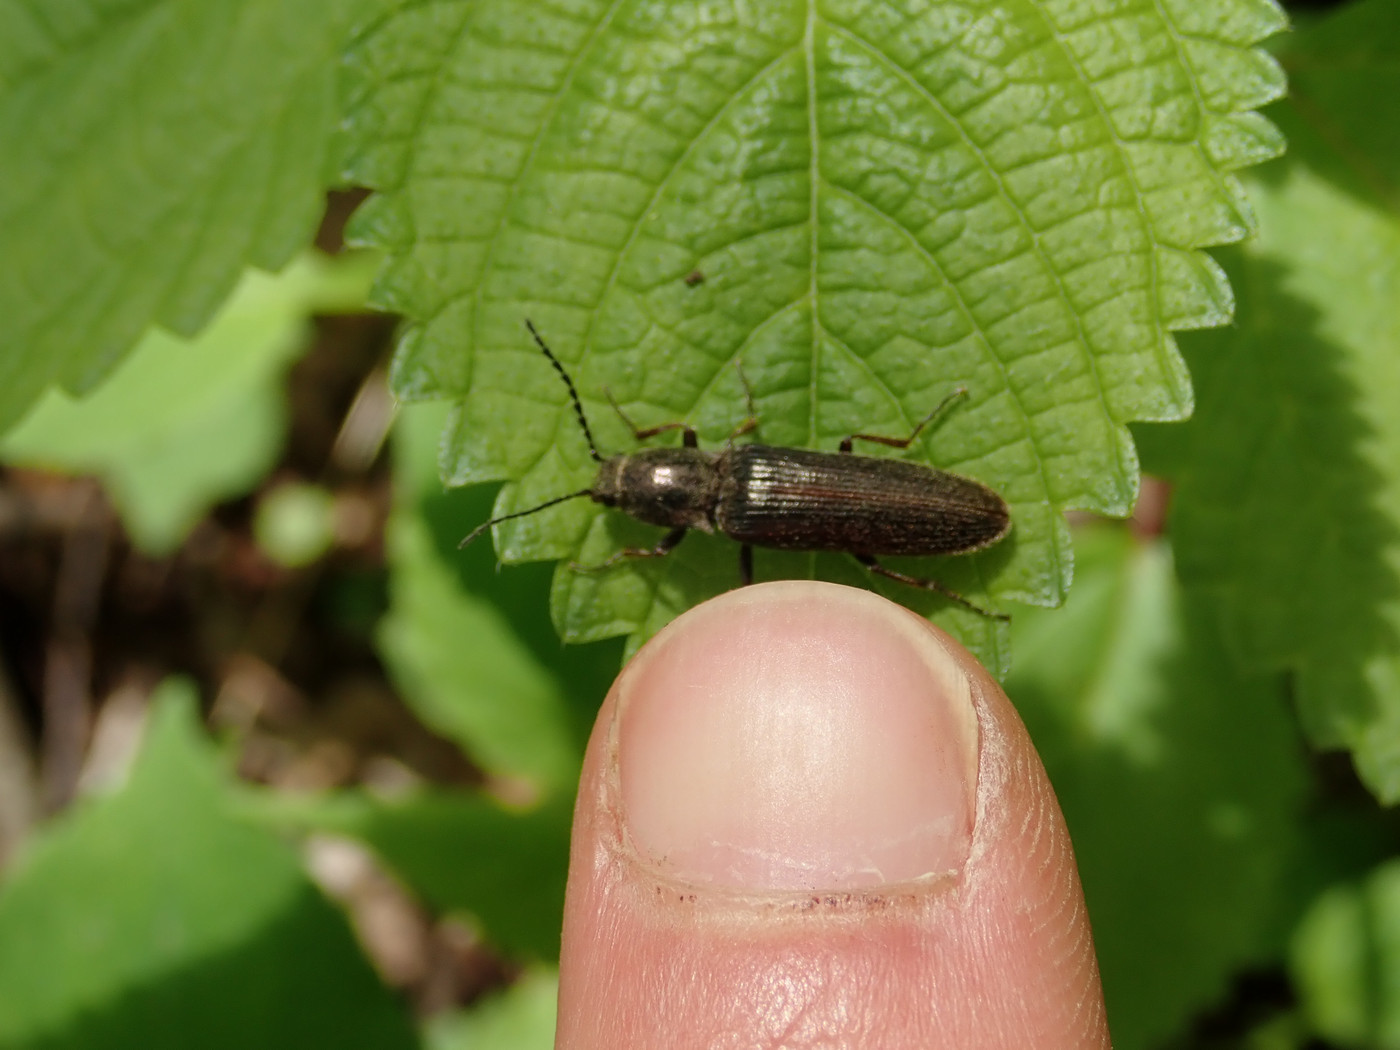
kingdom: Animalia
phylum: Arthropoda
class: Insecta
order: Coleoptera
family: Elateridae
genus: Sylvanelater
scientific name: Sylvanelater cylindriformis
